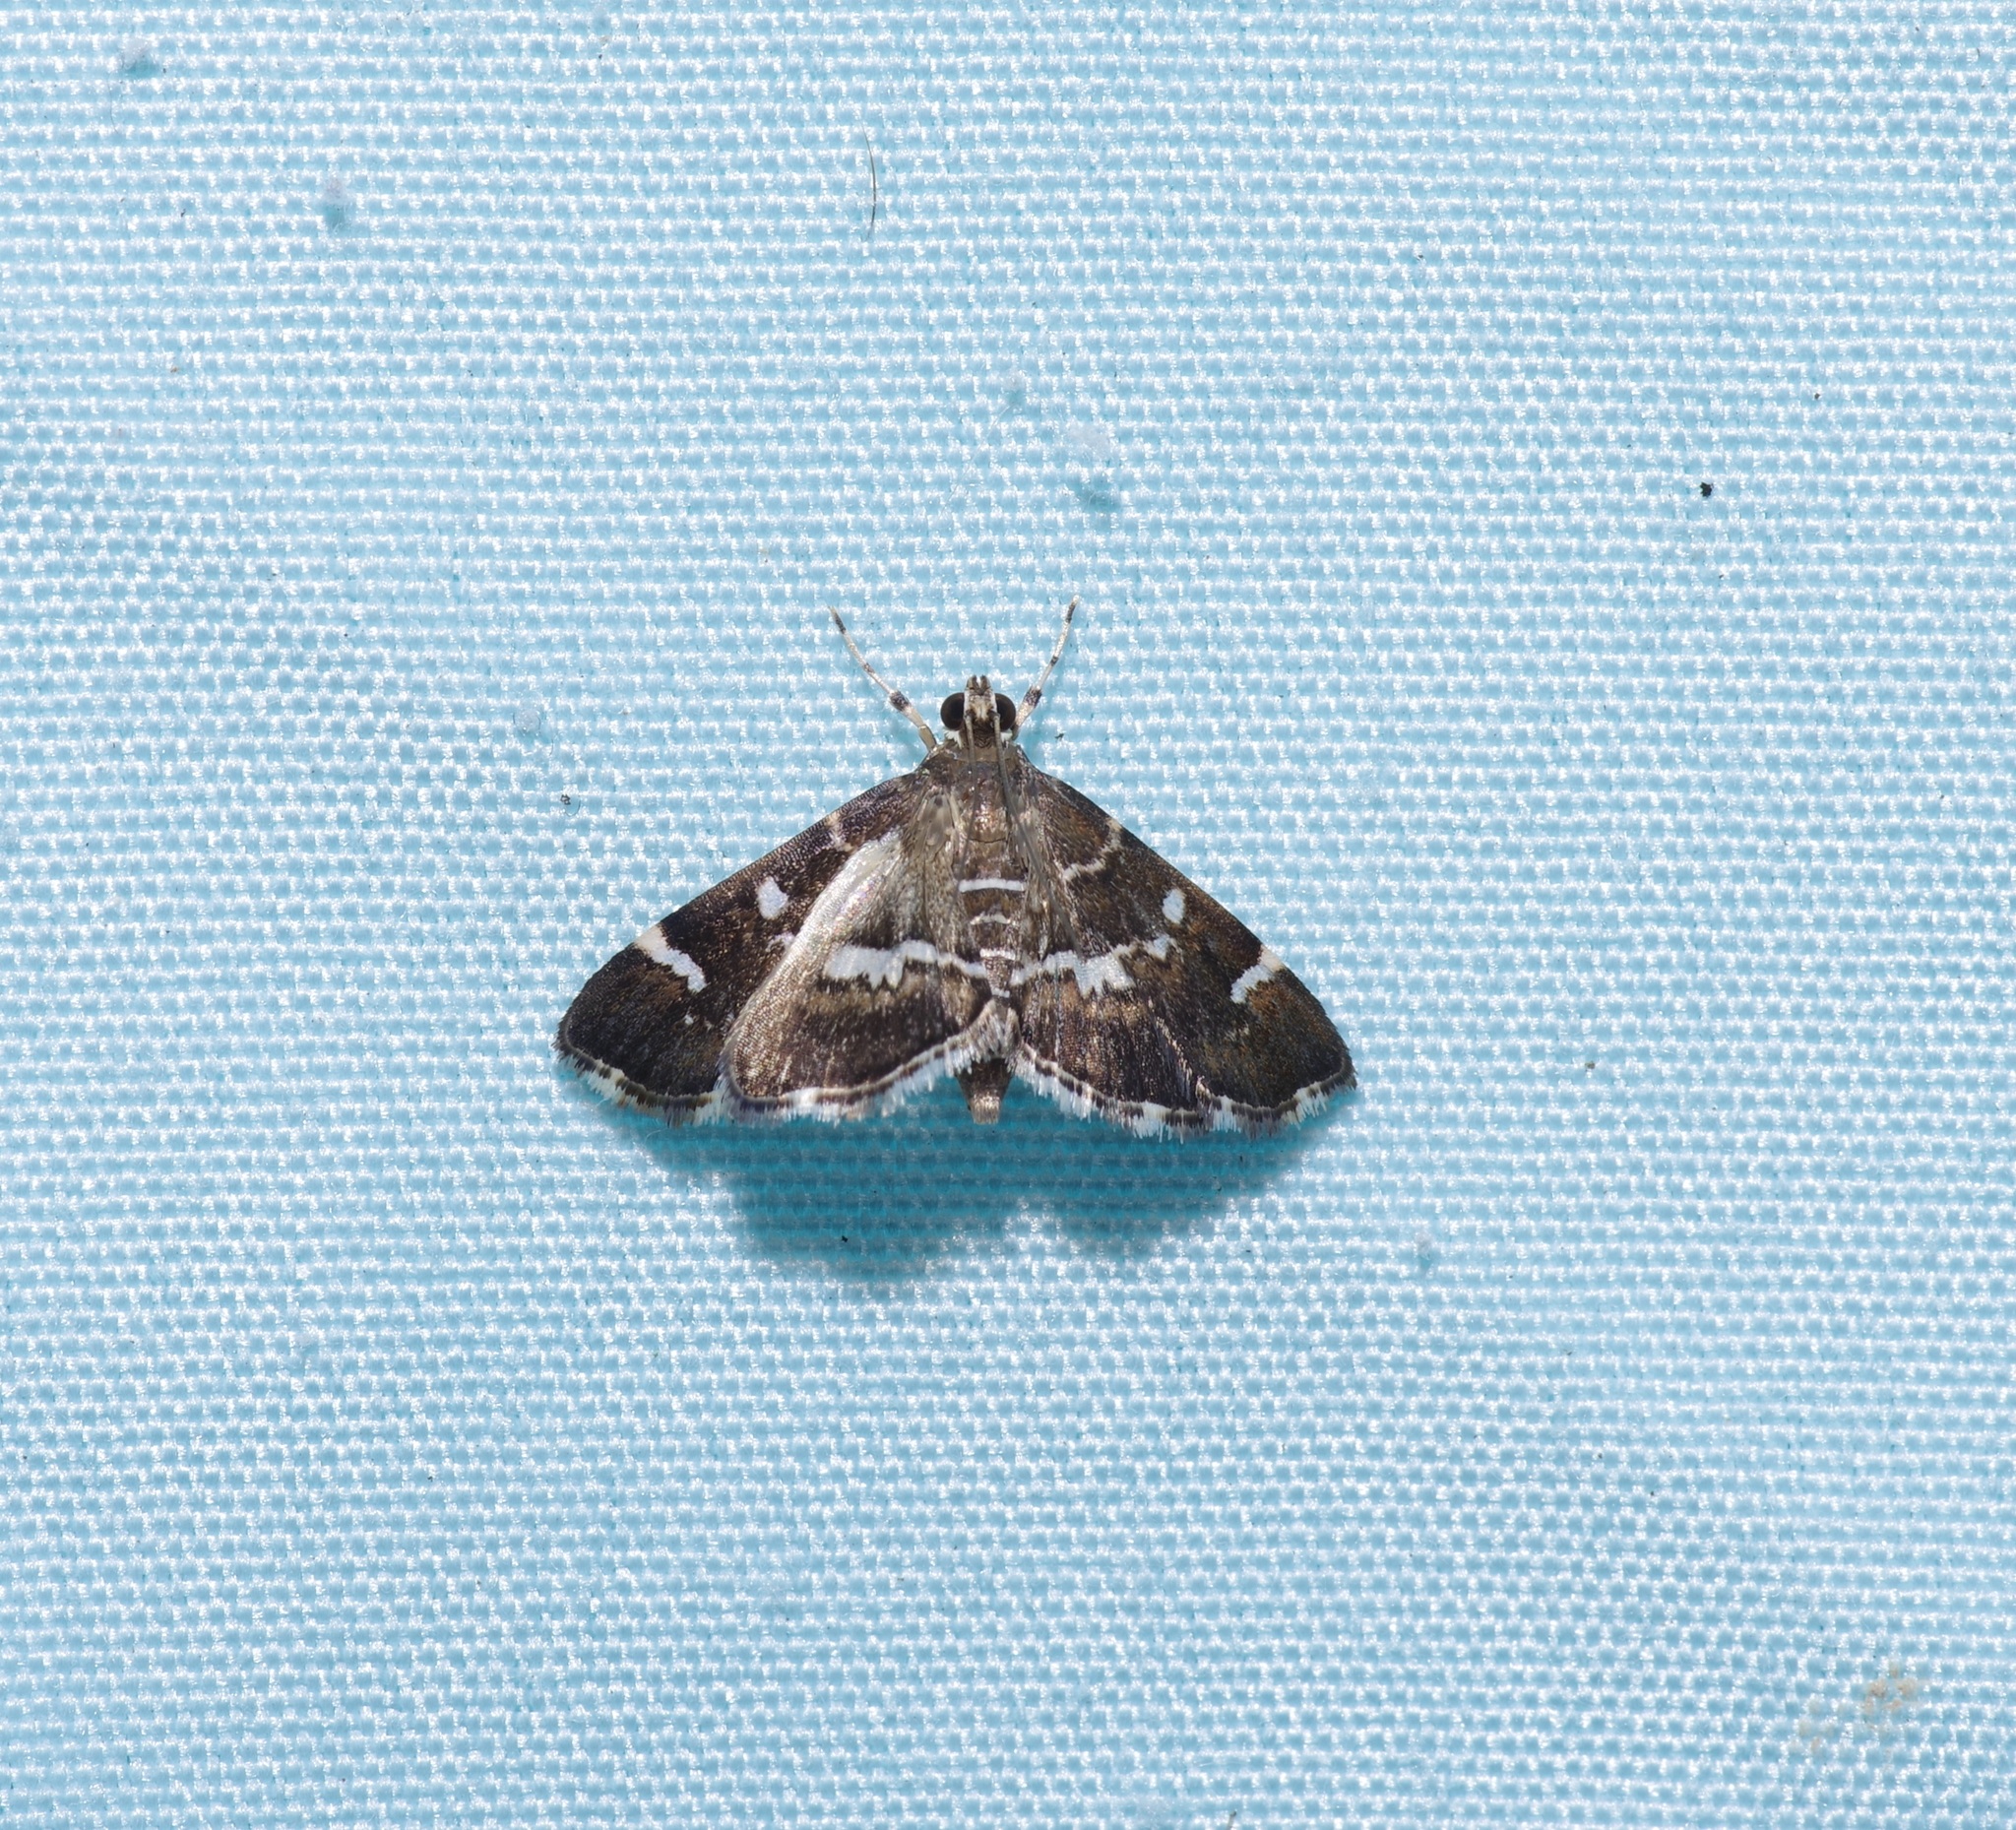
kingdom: Animalia
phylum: Arthropoda
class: Insecta
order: Lepidoptera
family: Crambidae
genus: Hymenia
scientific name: Hymenia perspectalis
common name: Spotted beet webworm
